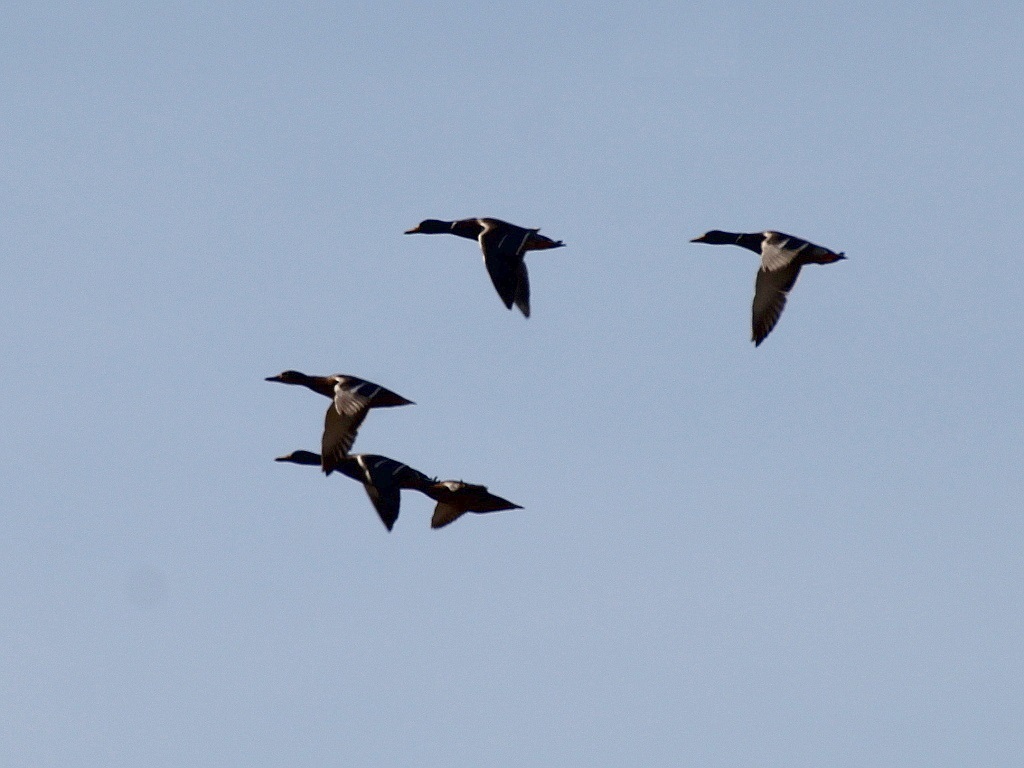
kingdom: Animalia
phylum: Chordata
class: Aves
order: Anseriformes
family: Anatidae
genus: Anas
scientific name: Anas platyrhynchos
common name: Mallard
